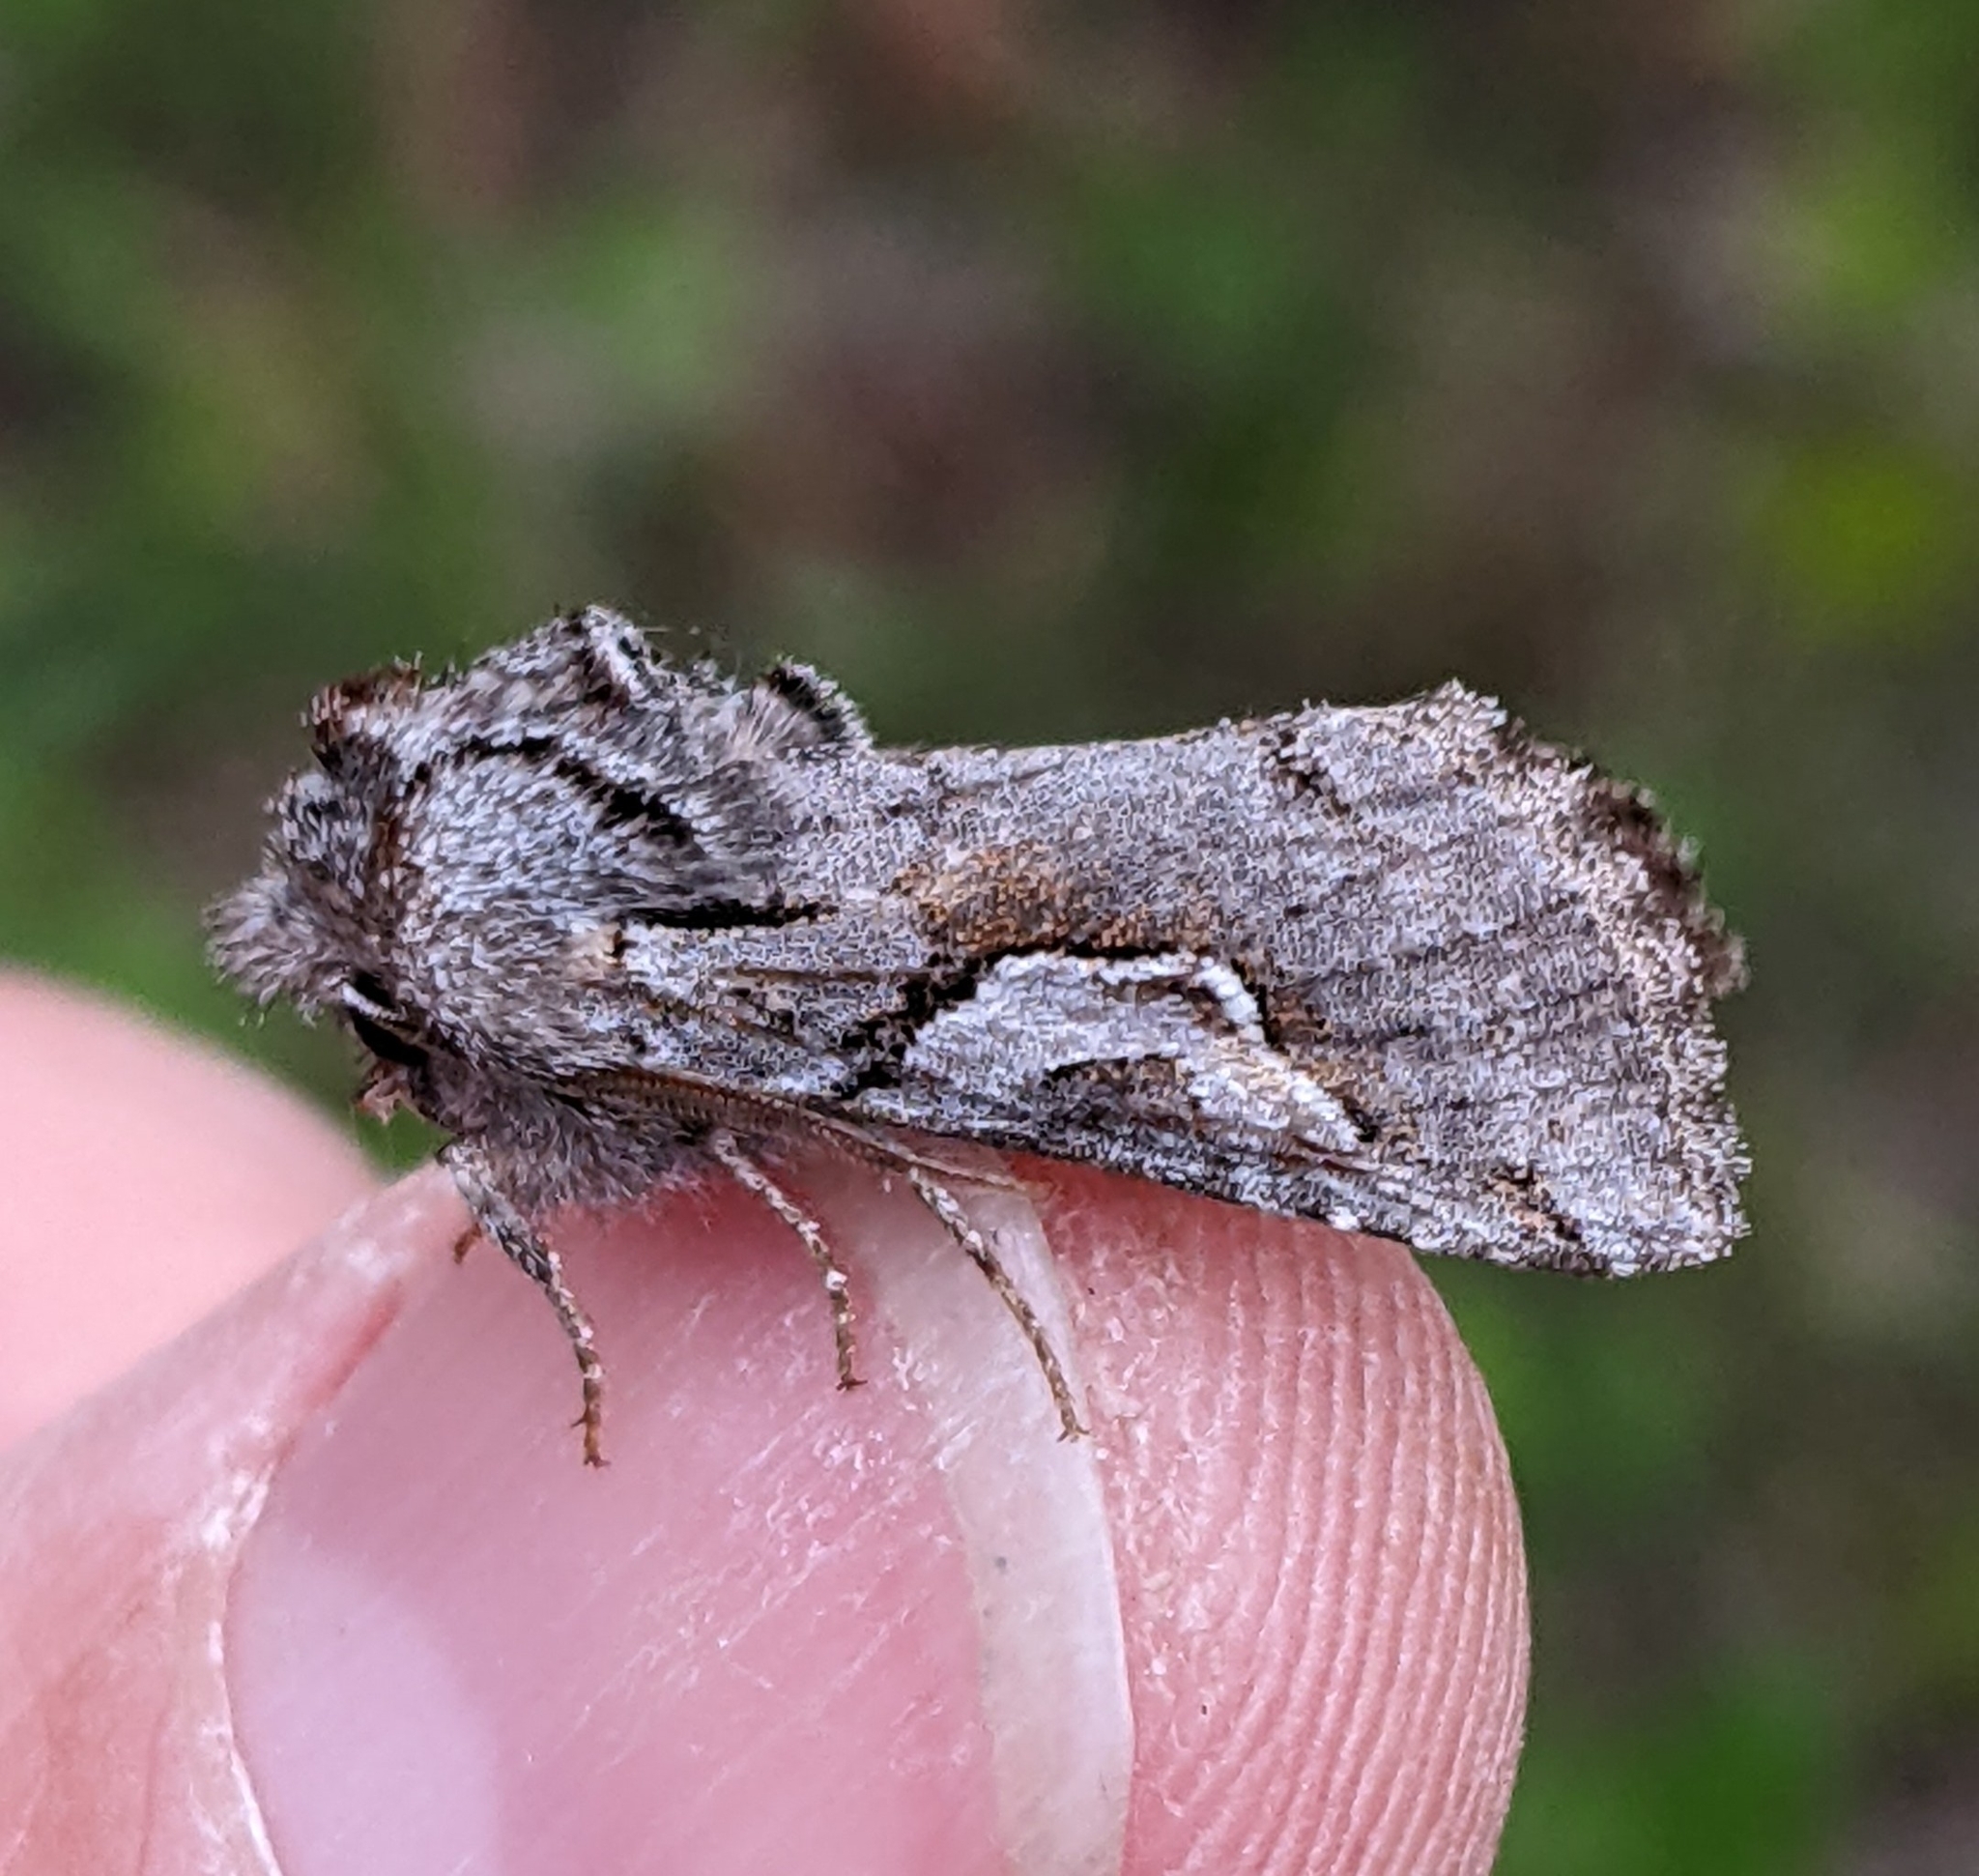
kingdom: Animalia
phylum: Arthropoda
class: Insecta
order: Lepidoptera
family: Noctuidae
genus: Stretchia
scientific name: Stretchia plusiaeformis
